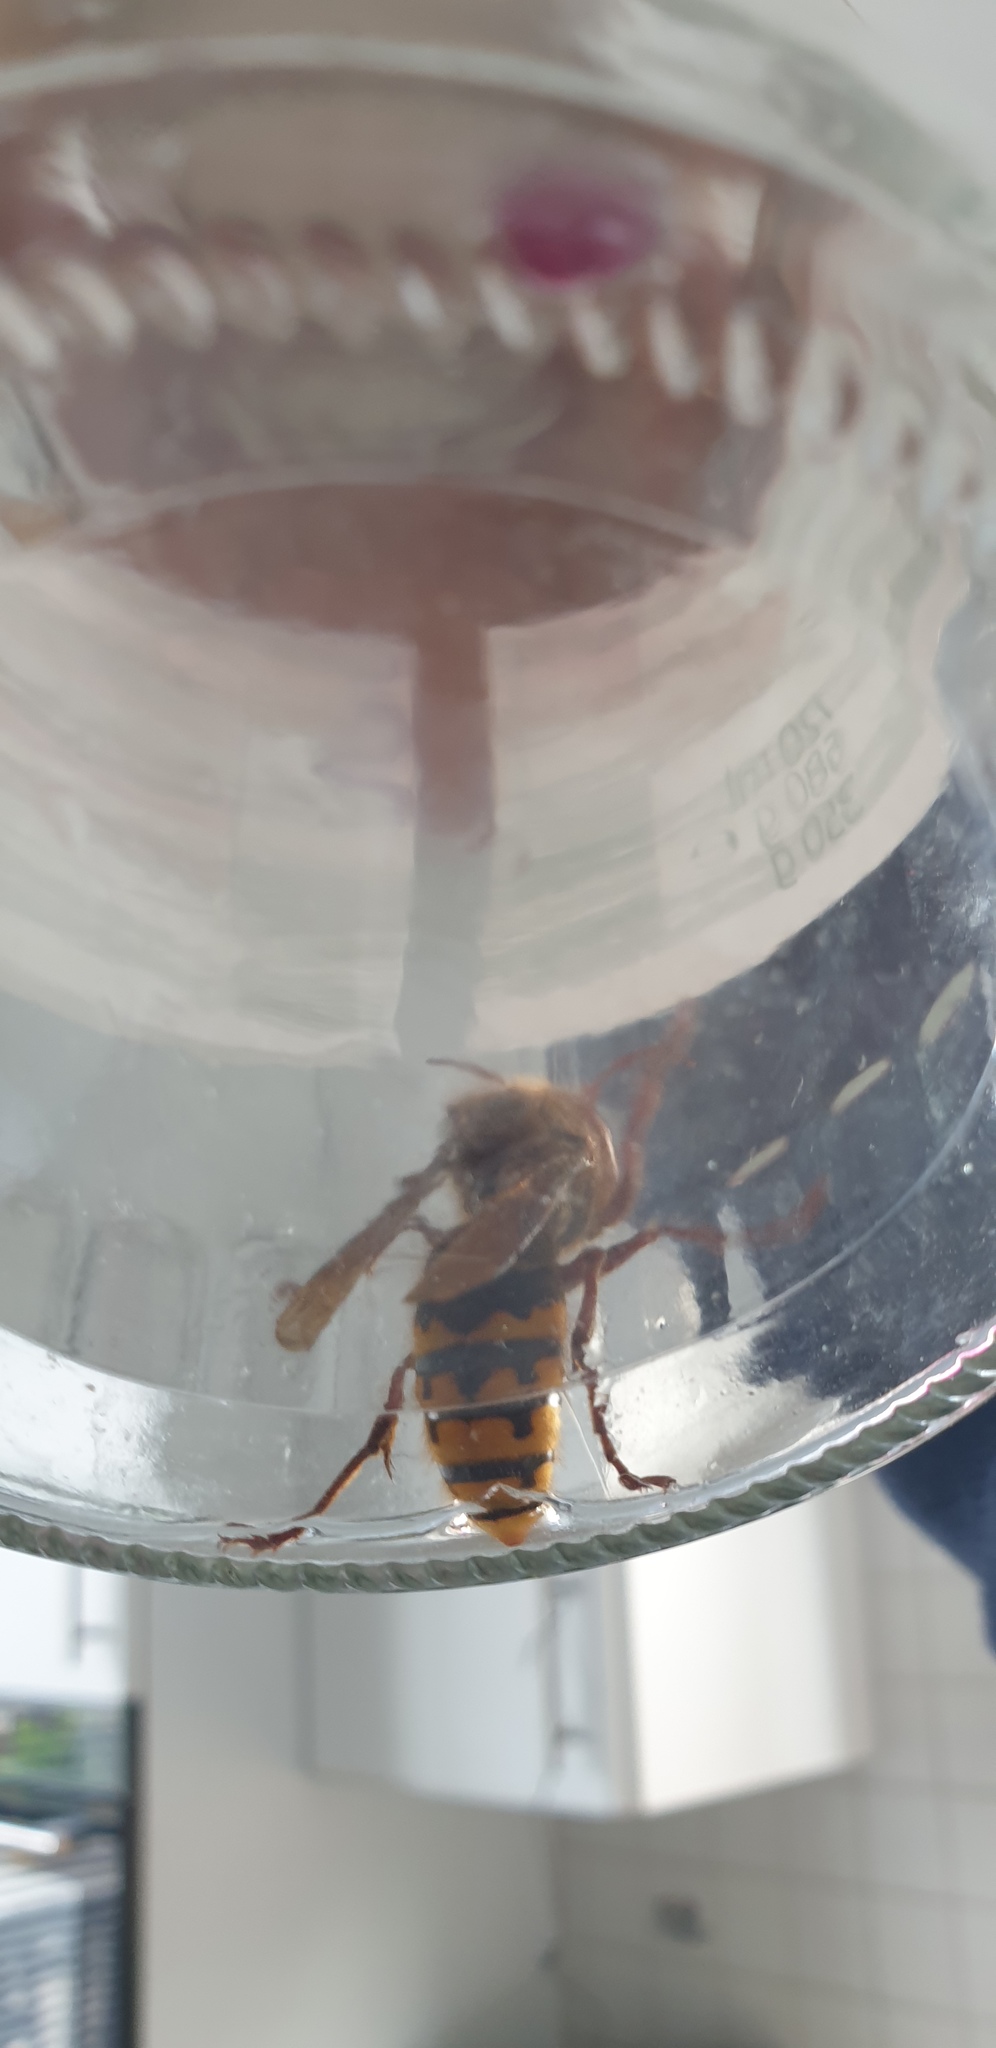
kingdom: Animalia
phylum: Arthropoda
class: Insecta
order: Hymenoptera
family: Vespidae
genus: Vespa
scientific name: Vespa crabro
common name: Hornet
